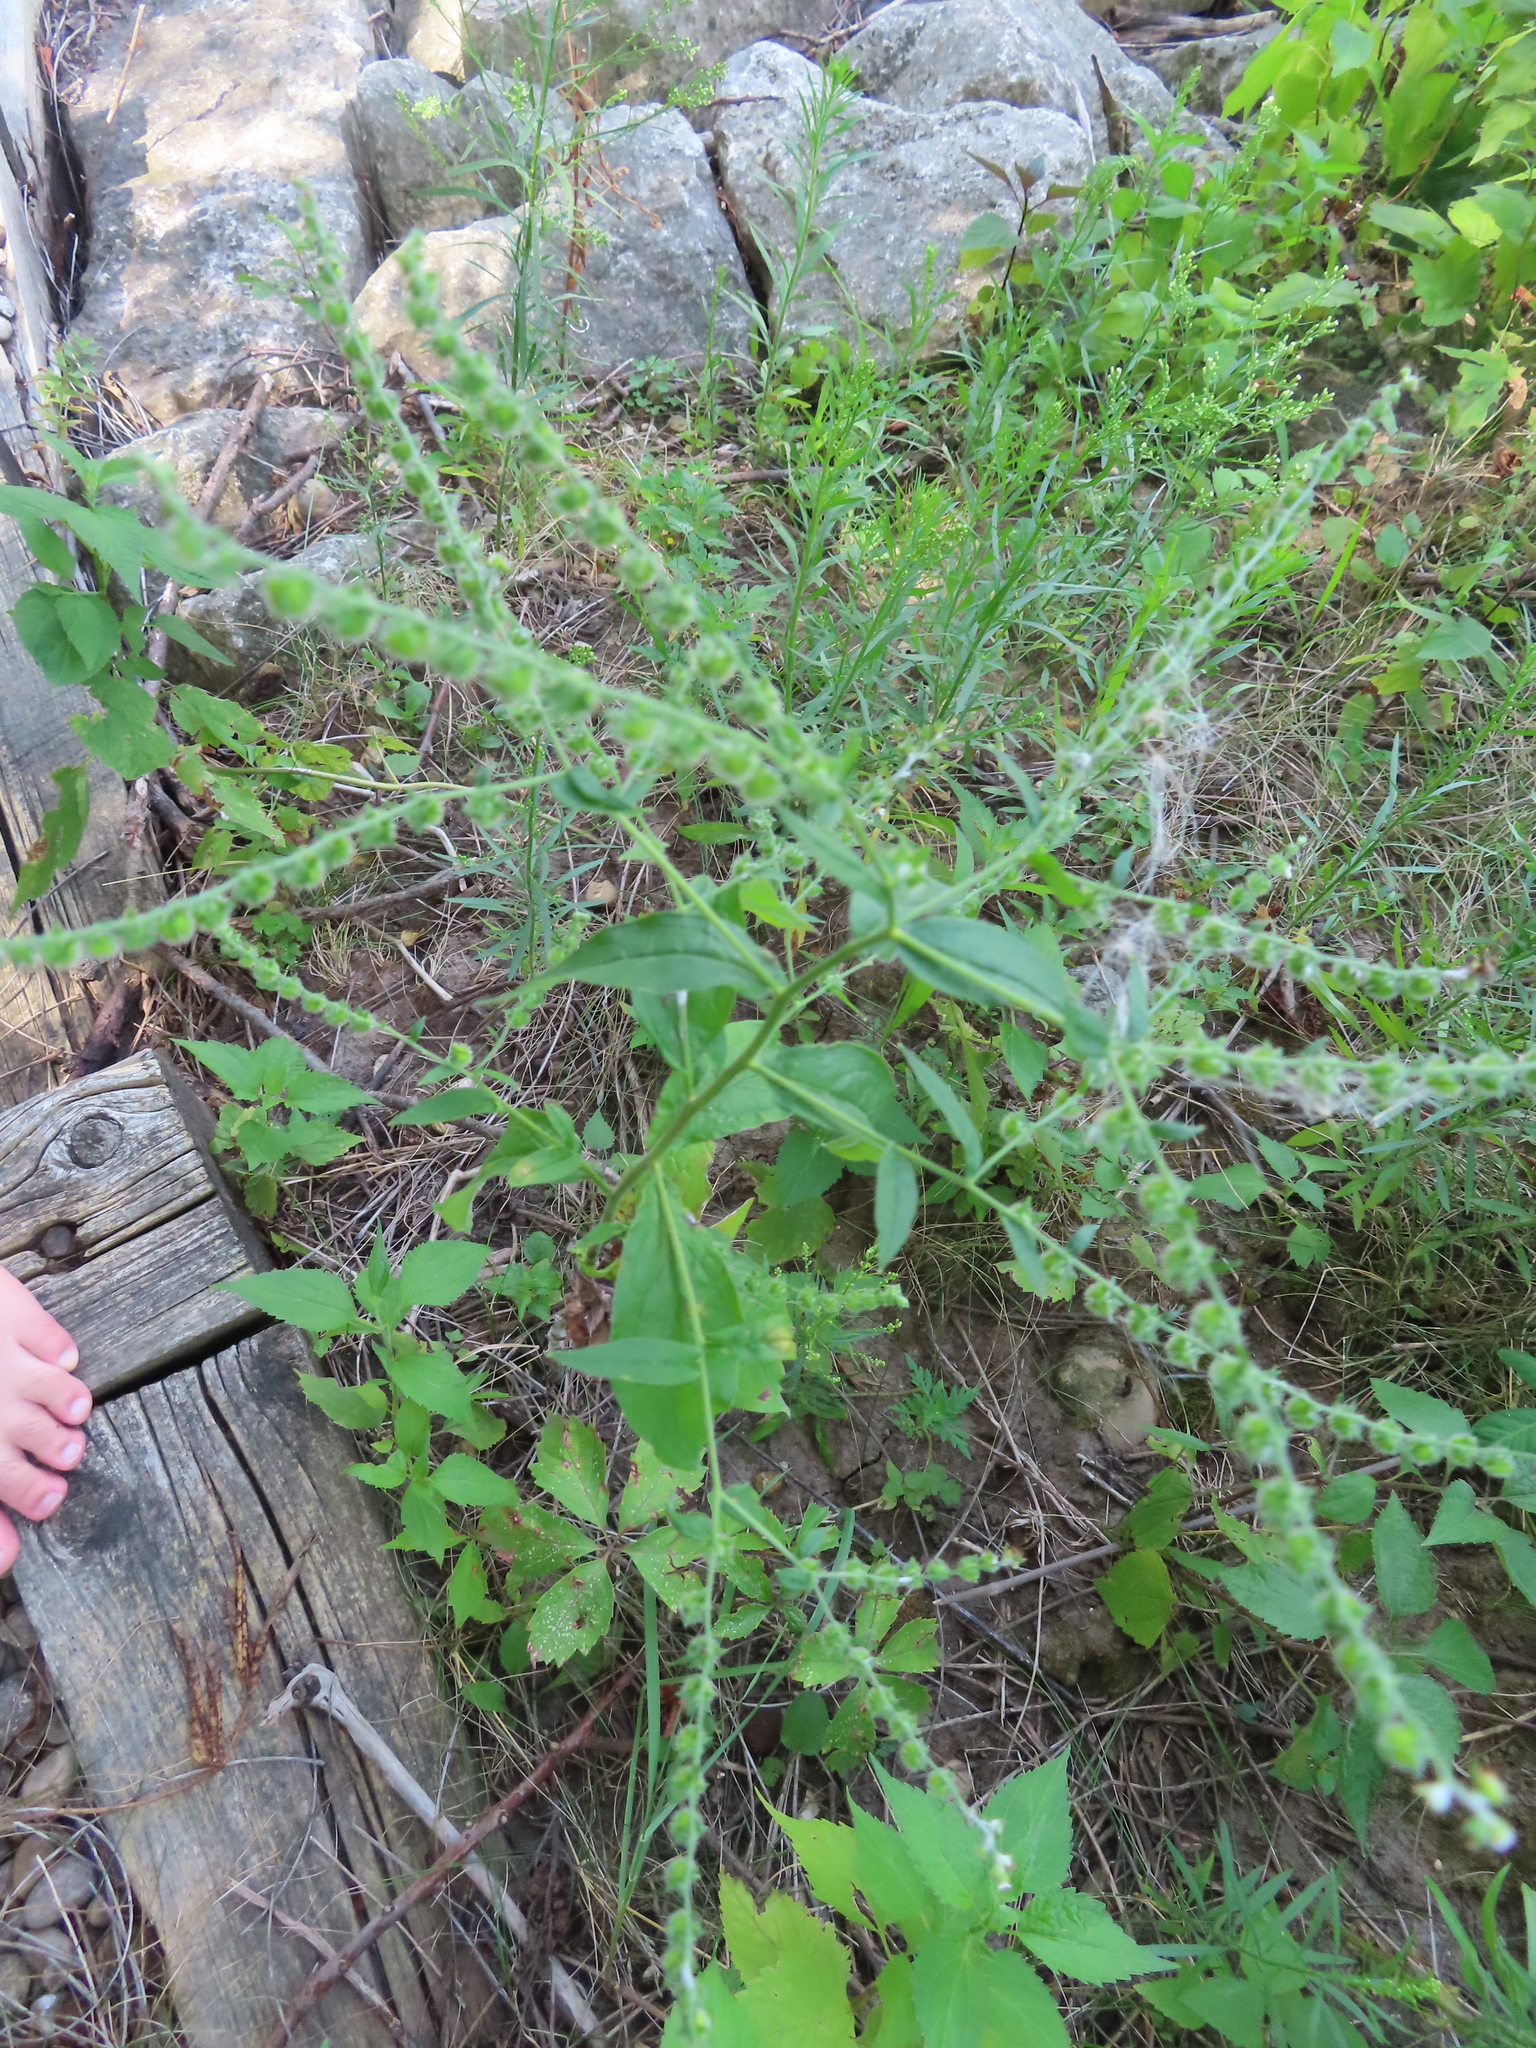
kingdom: Plantae
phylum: Tracheophyta
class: Magnoliopsida
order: Boraginales
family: Boraginaceae
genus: Hackelia
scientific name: Hackelia virginiana
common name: Beggar's-lice
